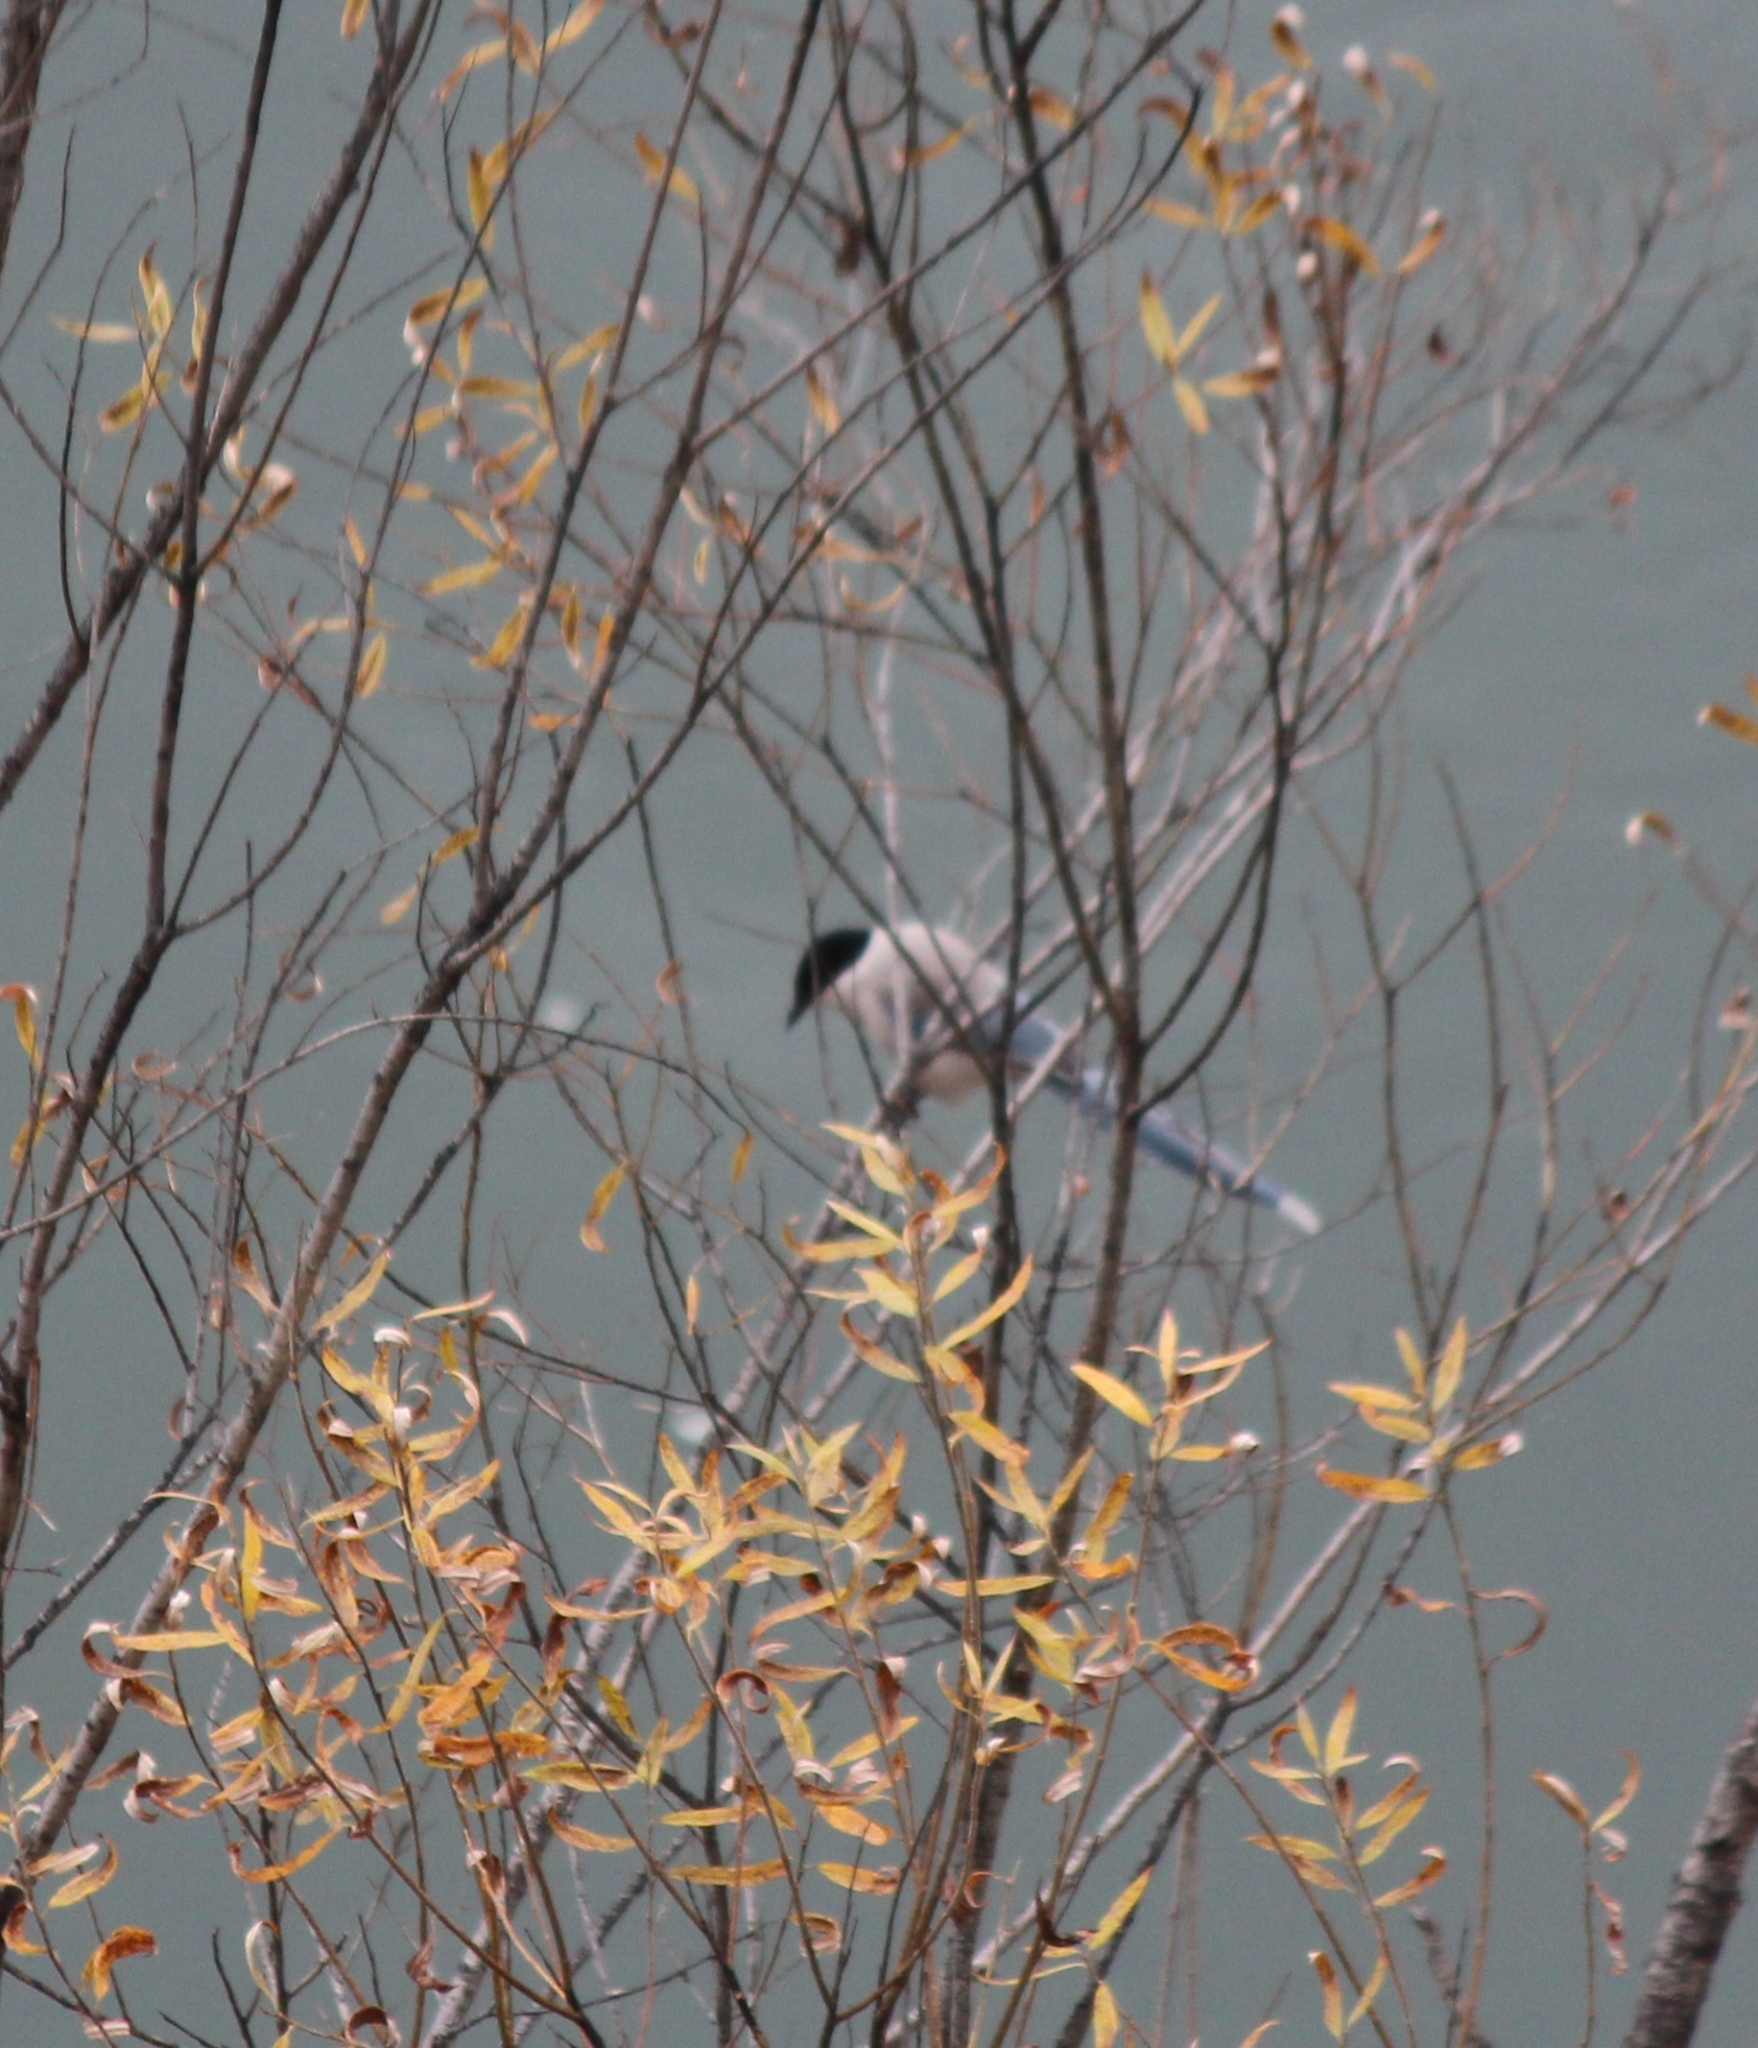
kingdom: Animalia
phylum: Chordata
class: Aves
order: Passeriformes
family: Corvidae
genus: Cyanopica
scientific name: Cyanopica cyanus
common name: Azure-winged magpie
